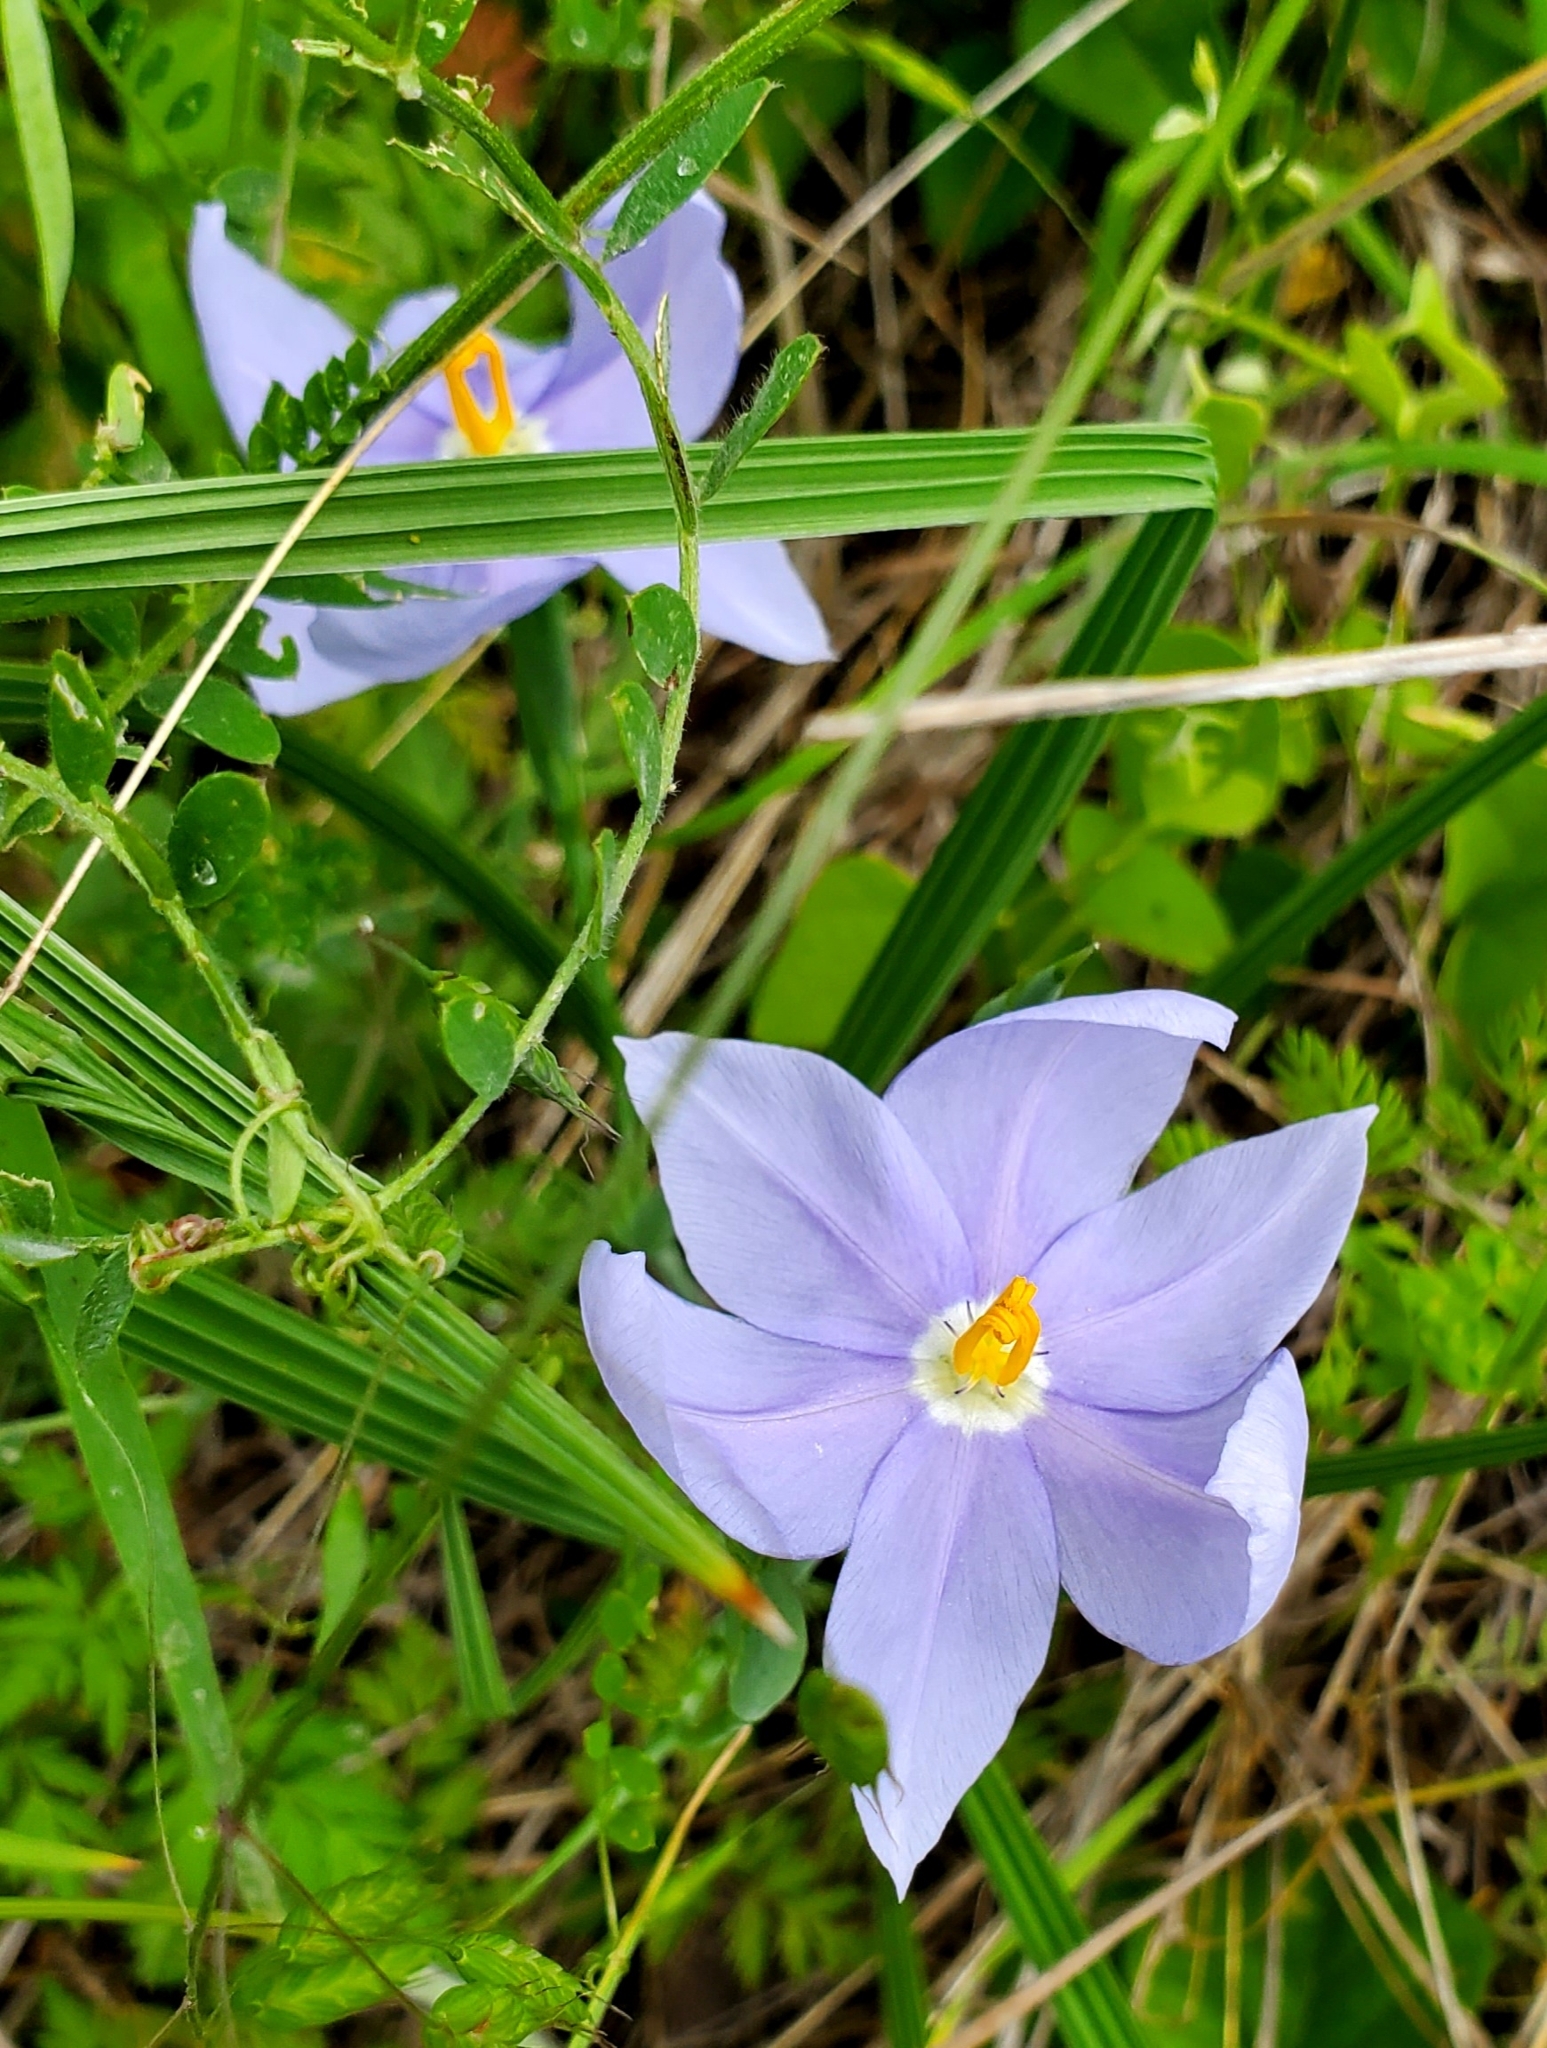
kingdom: Plantae
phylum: Tracheophyta
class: Liliopsida
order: Asparagales
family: Iridaceae
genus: Nemastylis
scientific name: Nemastylis geminiflora
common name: Prairie celestial
